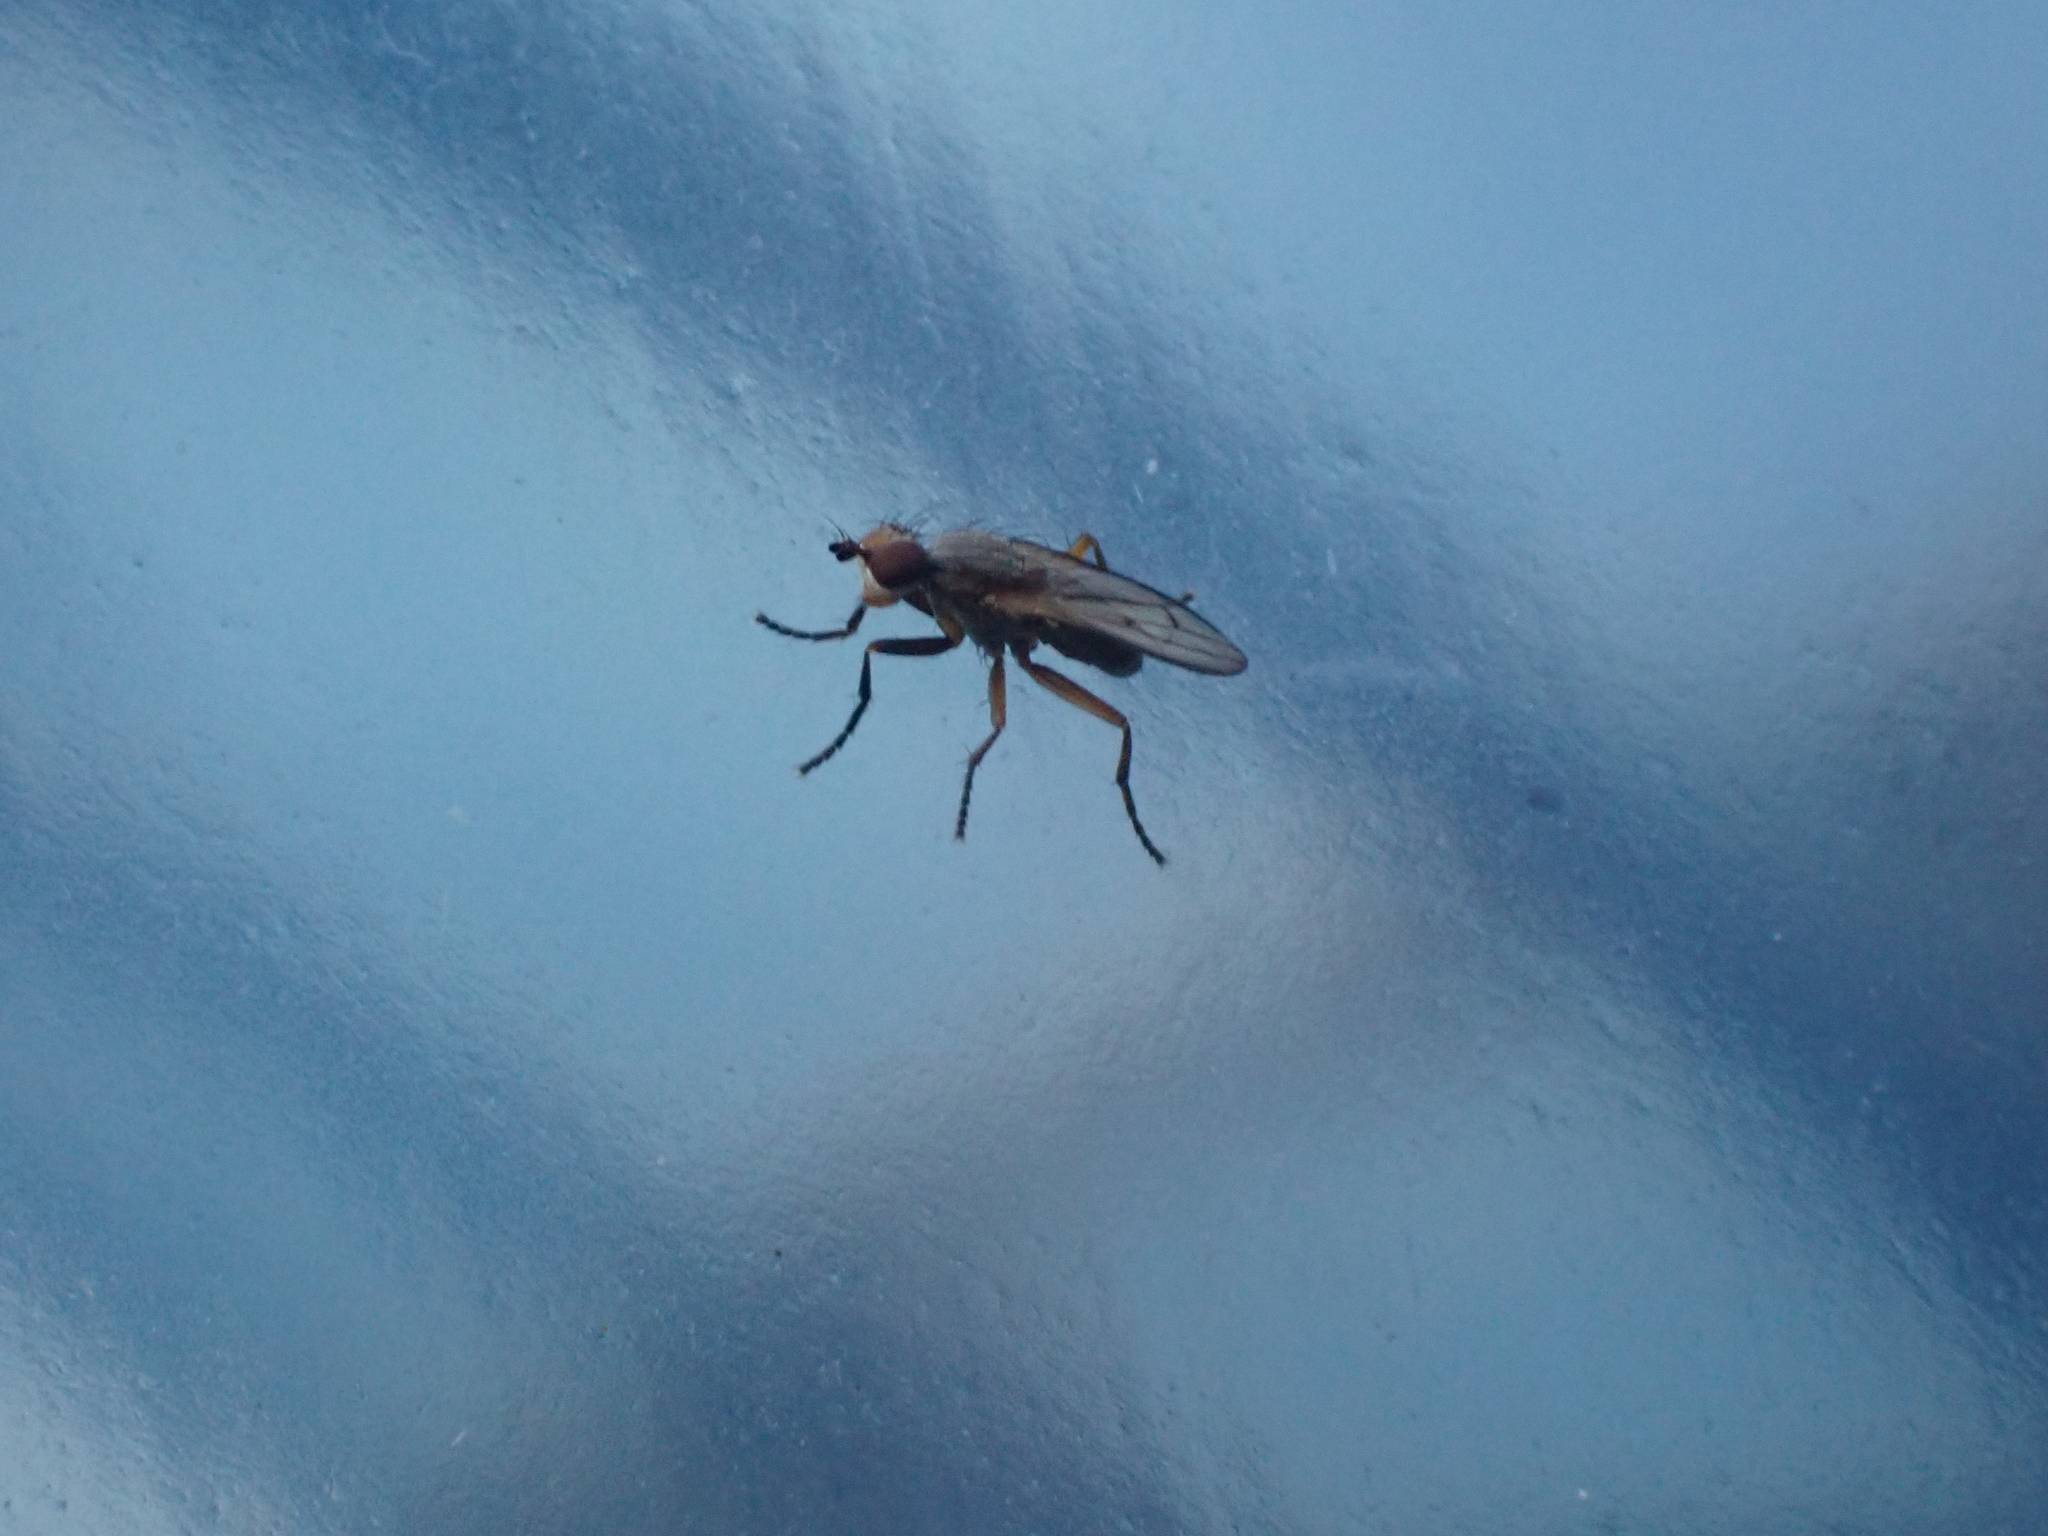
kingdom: Animalia
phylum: Arthropoda
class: Insecta
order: Diptera
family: Sciomyzidae
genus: Pherbellia
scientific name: Pherbellia cinerella
